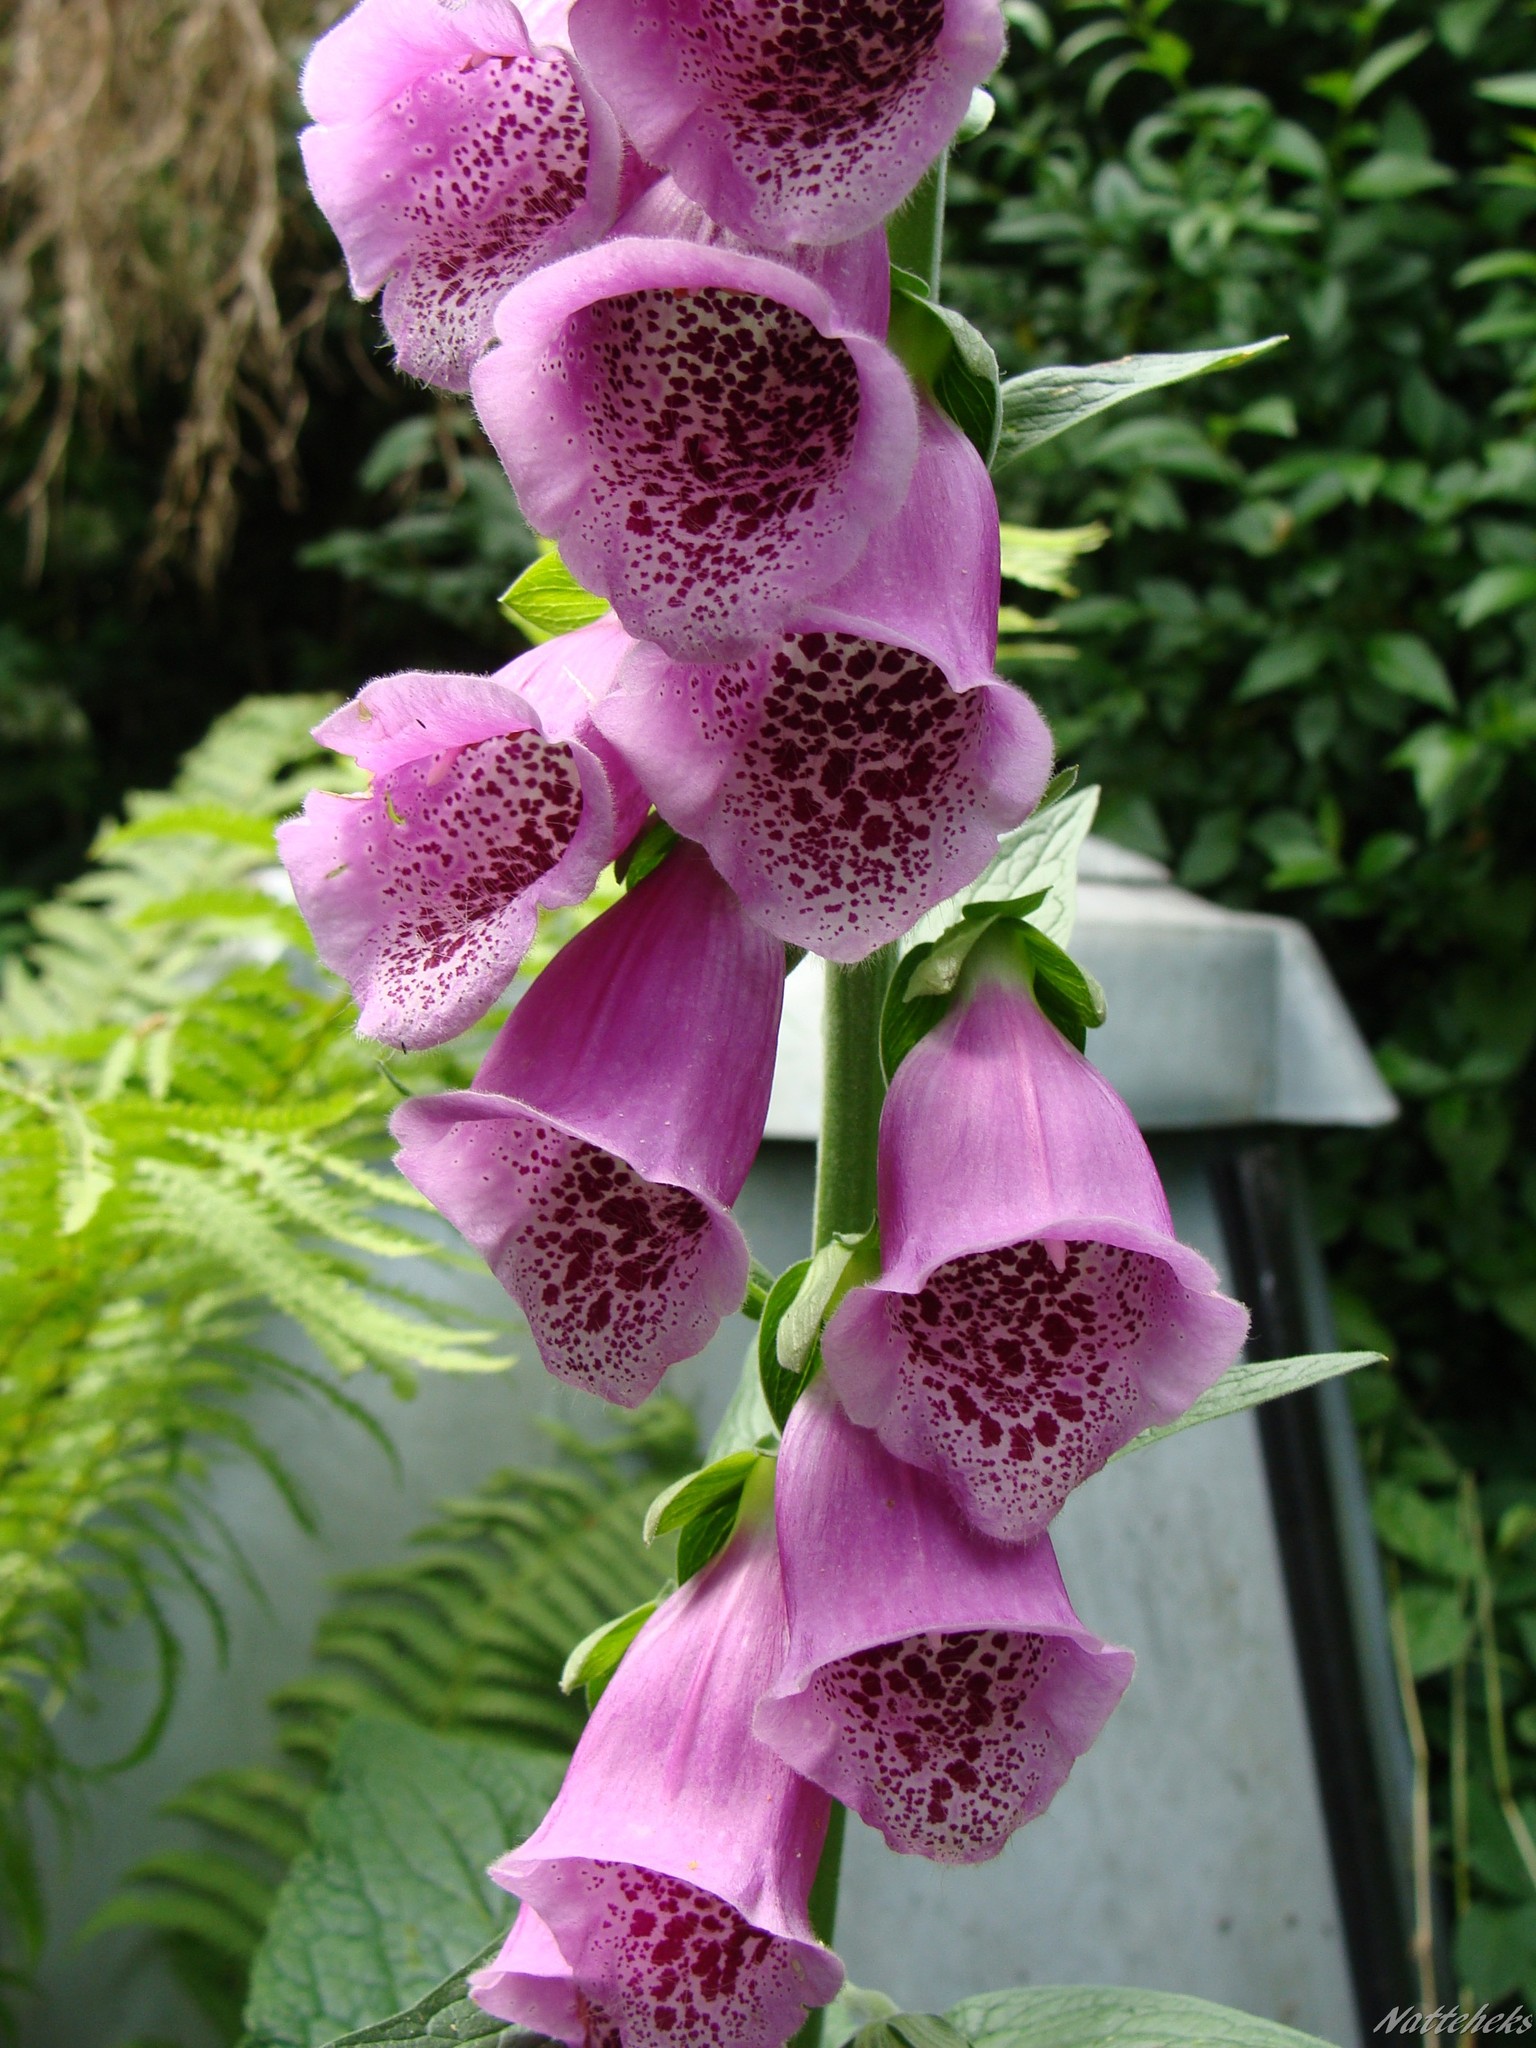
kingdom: Plantae
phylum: Tracheophyta
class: Magnoliopsida
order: Lamiales
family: Plantaginaceae
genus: Digitalis
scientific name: Digitalis purpurea
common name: Foxglove
